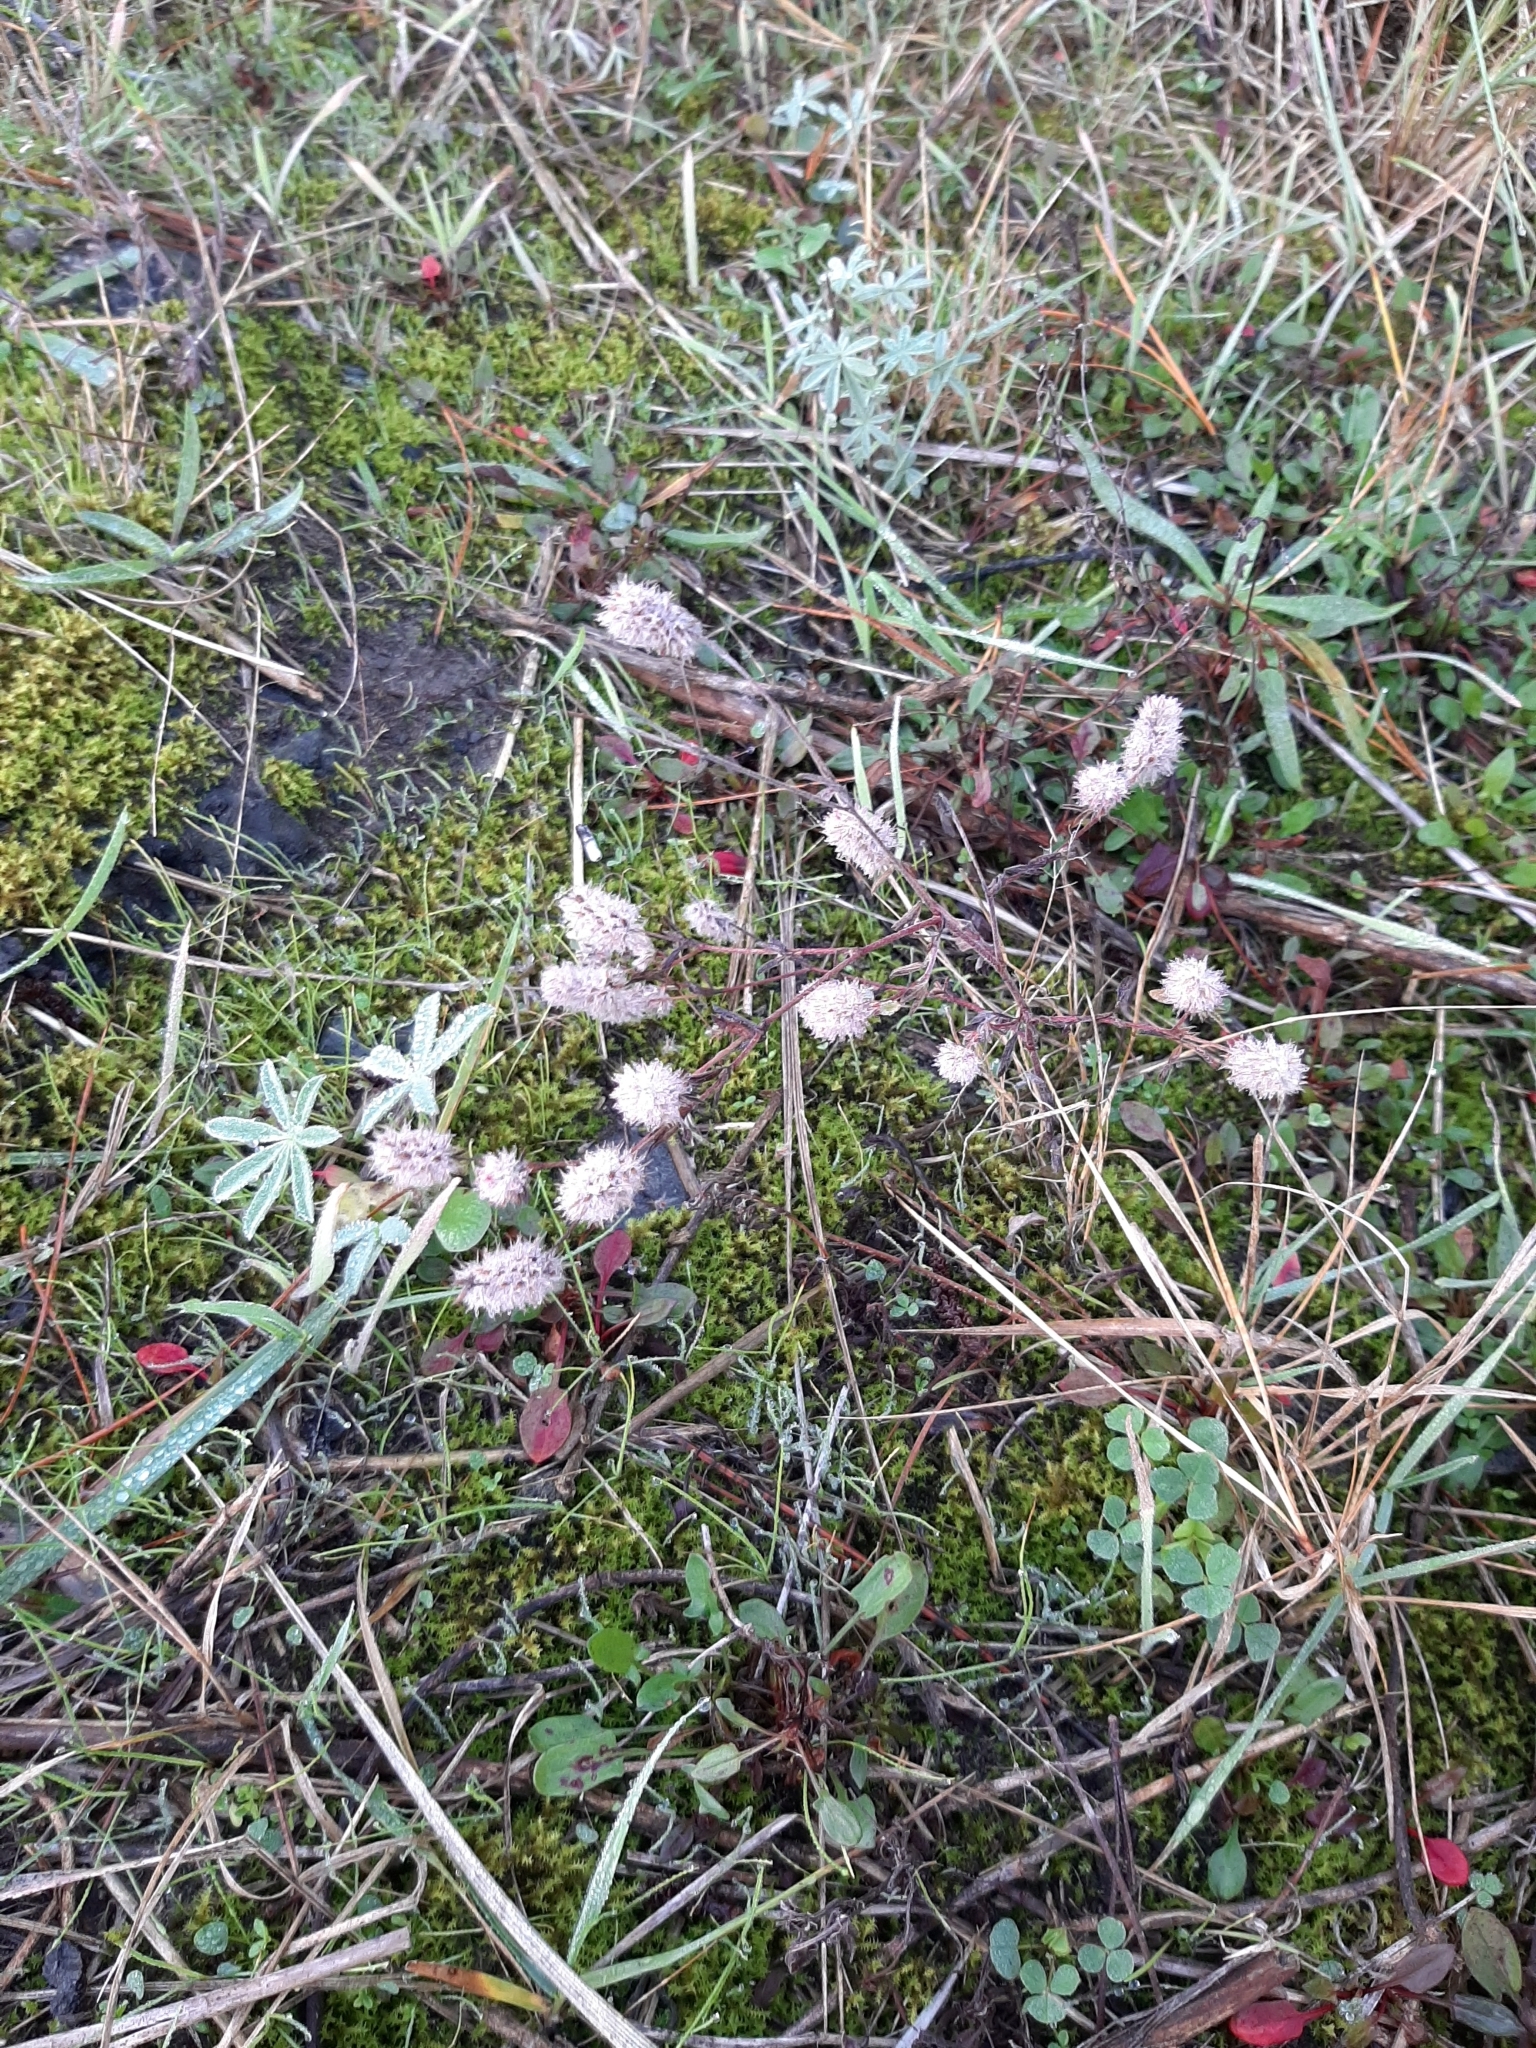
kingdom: Plantae
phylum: Tracheophyta
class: Magnoliopsida
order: Fabales
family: Fabaceae
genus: Trifolium
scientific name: Trifolium arvense
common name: Hare's-foot clover
